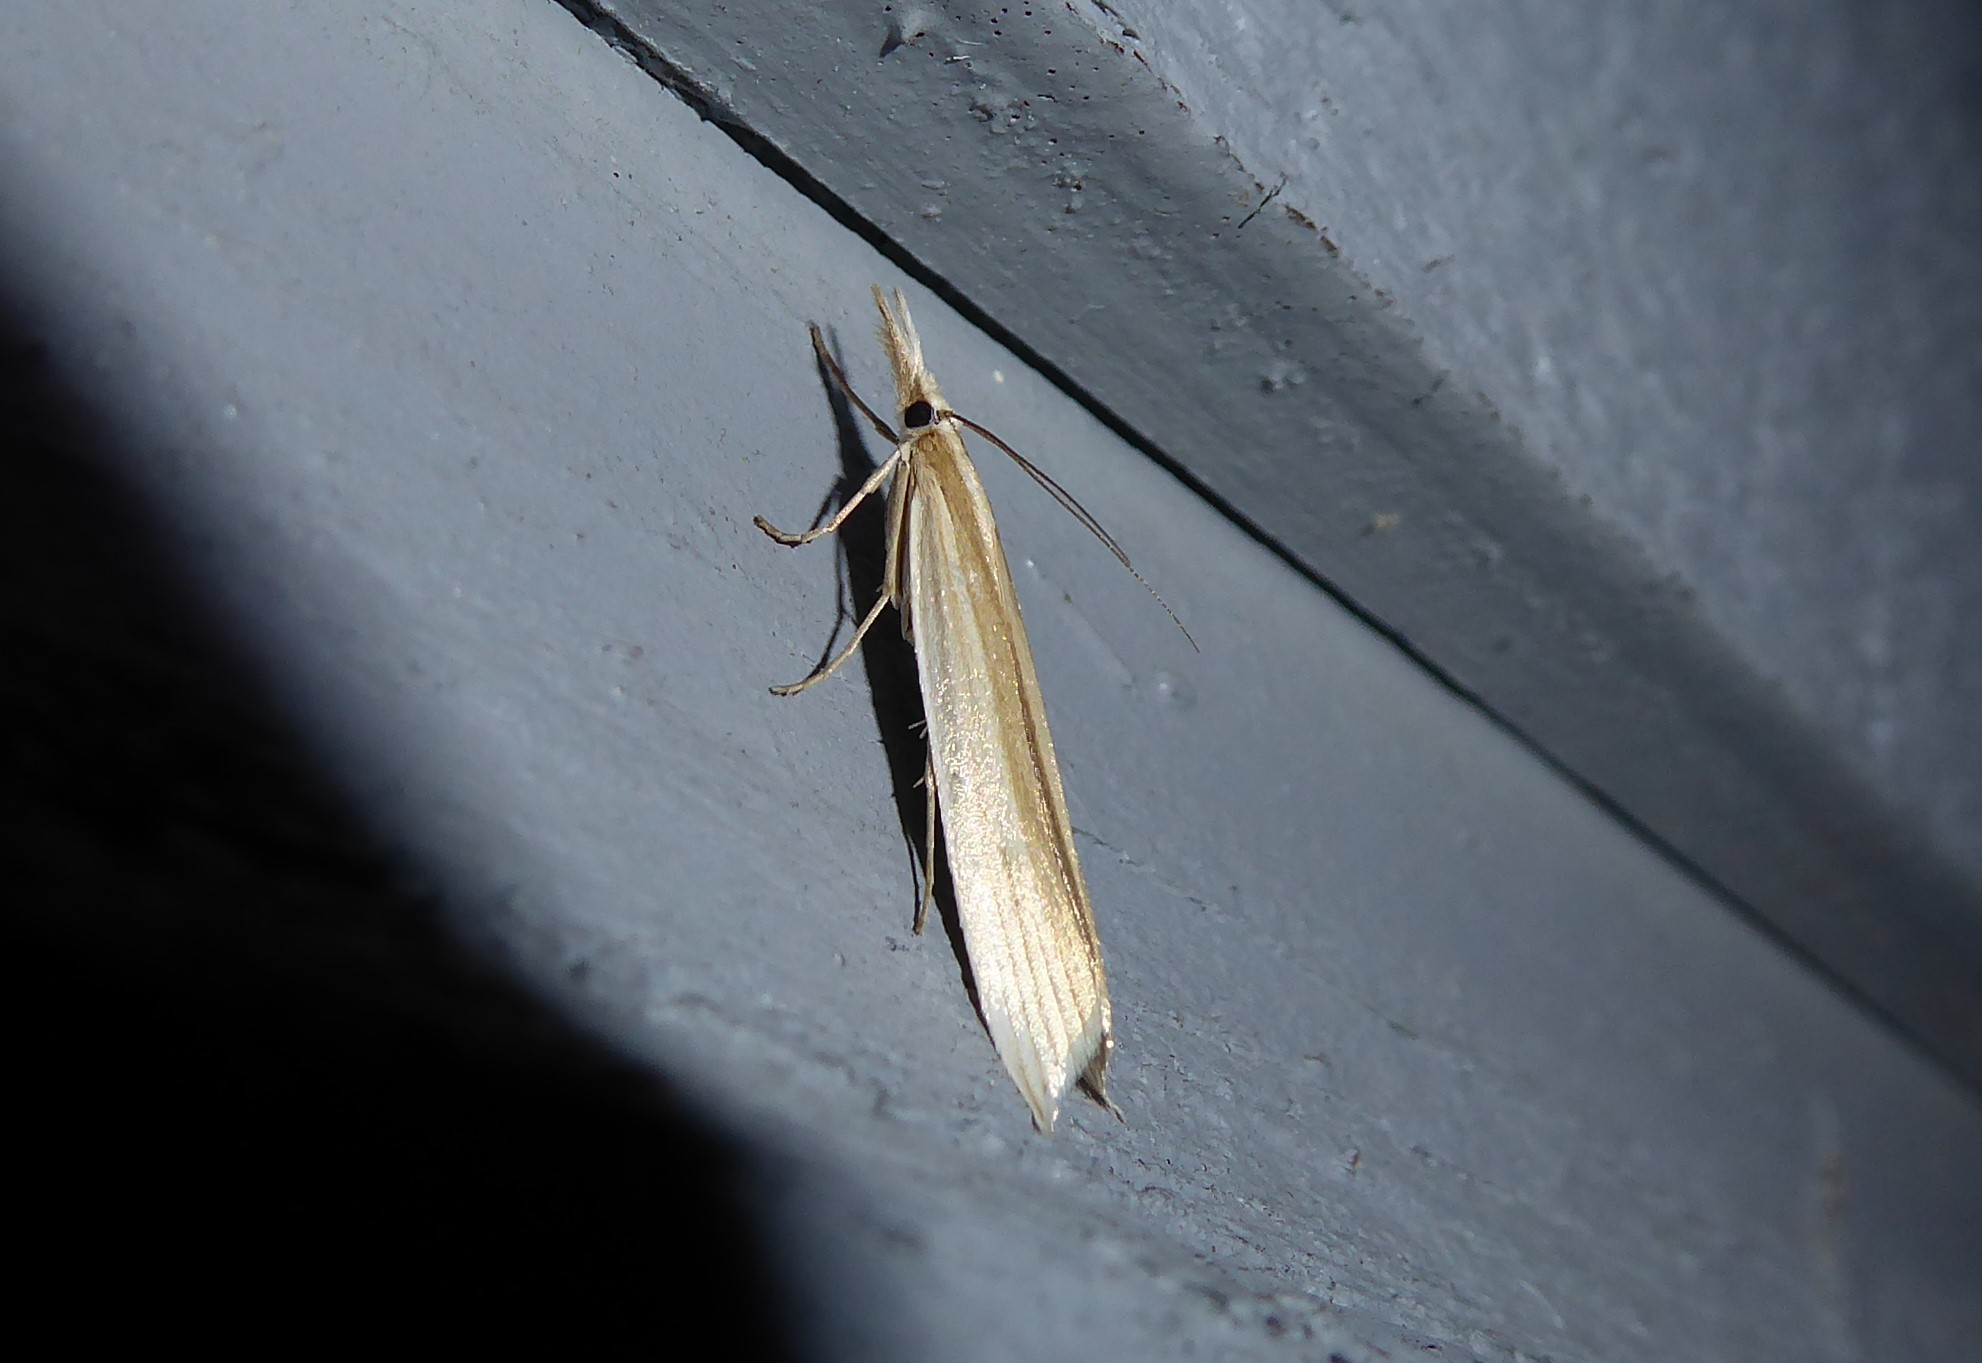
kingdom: Animalia
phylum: Arthropoda
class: Insecta
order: Lepidoptera
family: Crambidae
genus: Orocrambus
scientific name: Orocrambus angustipennis
